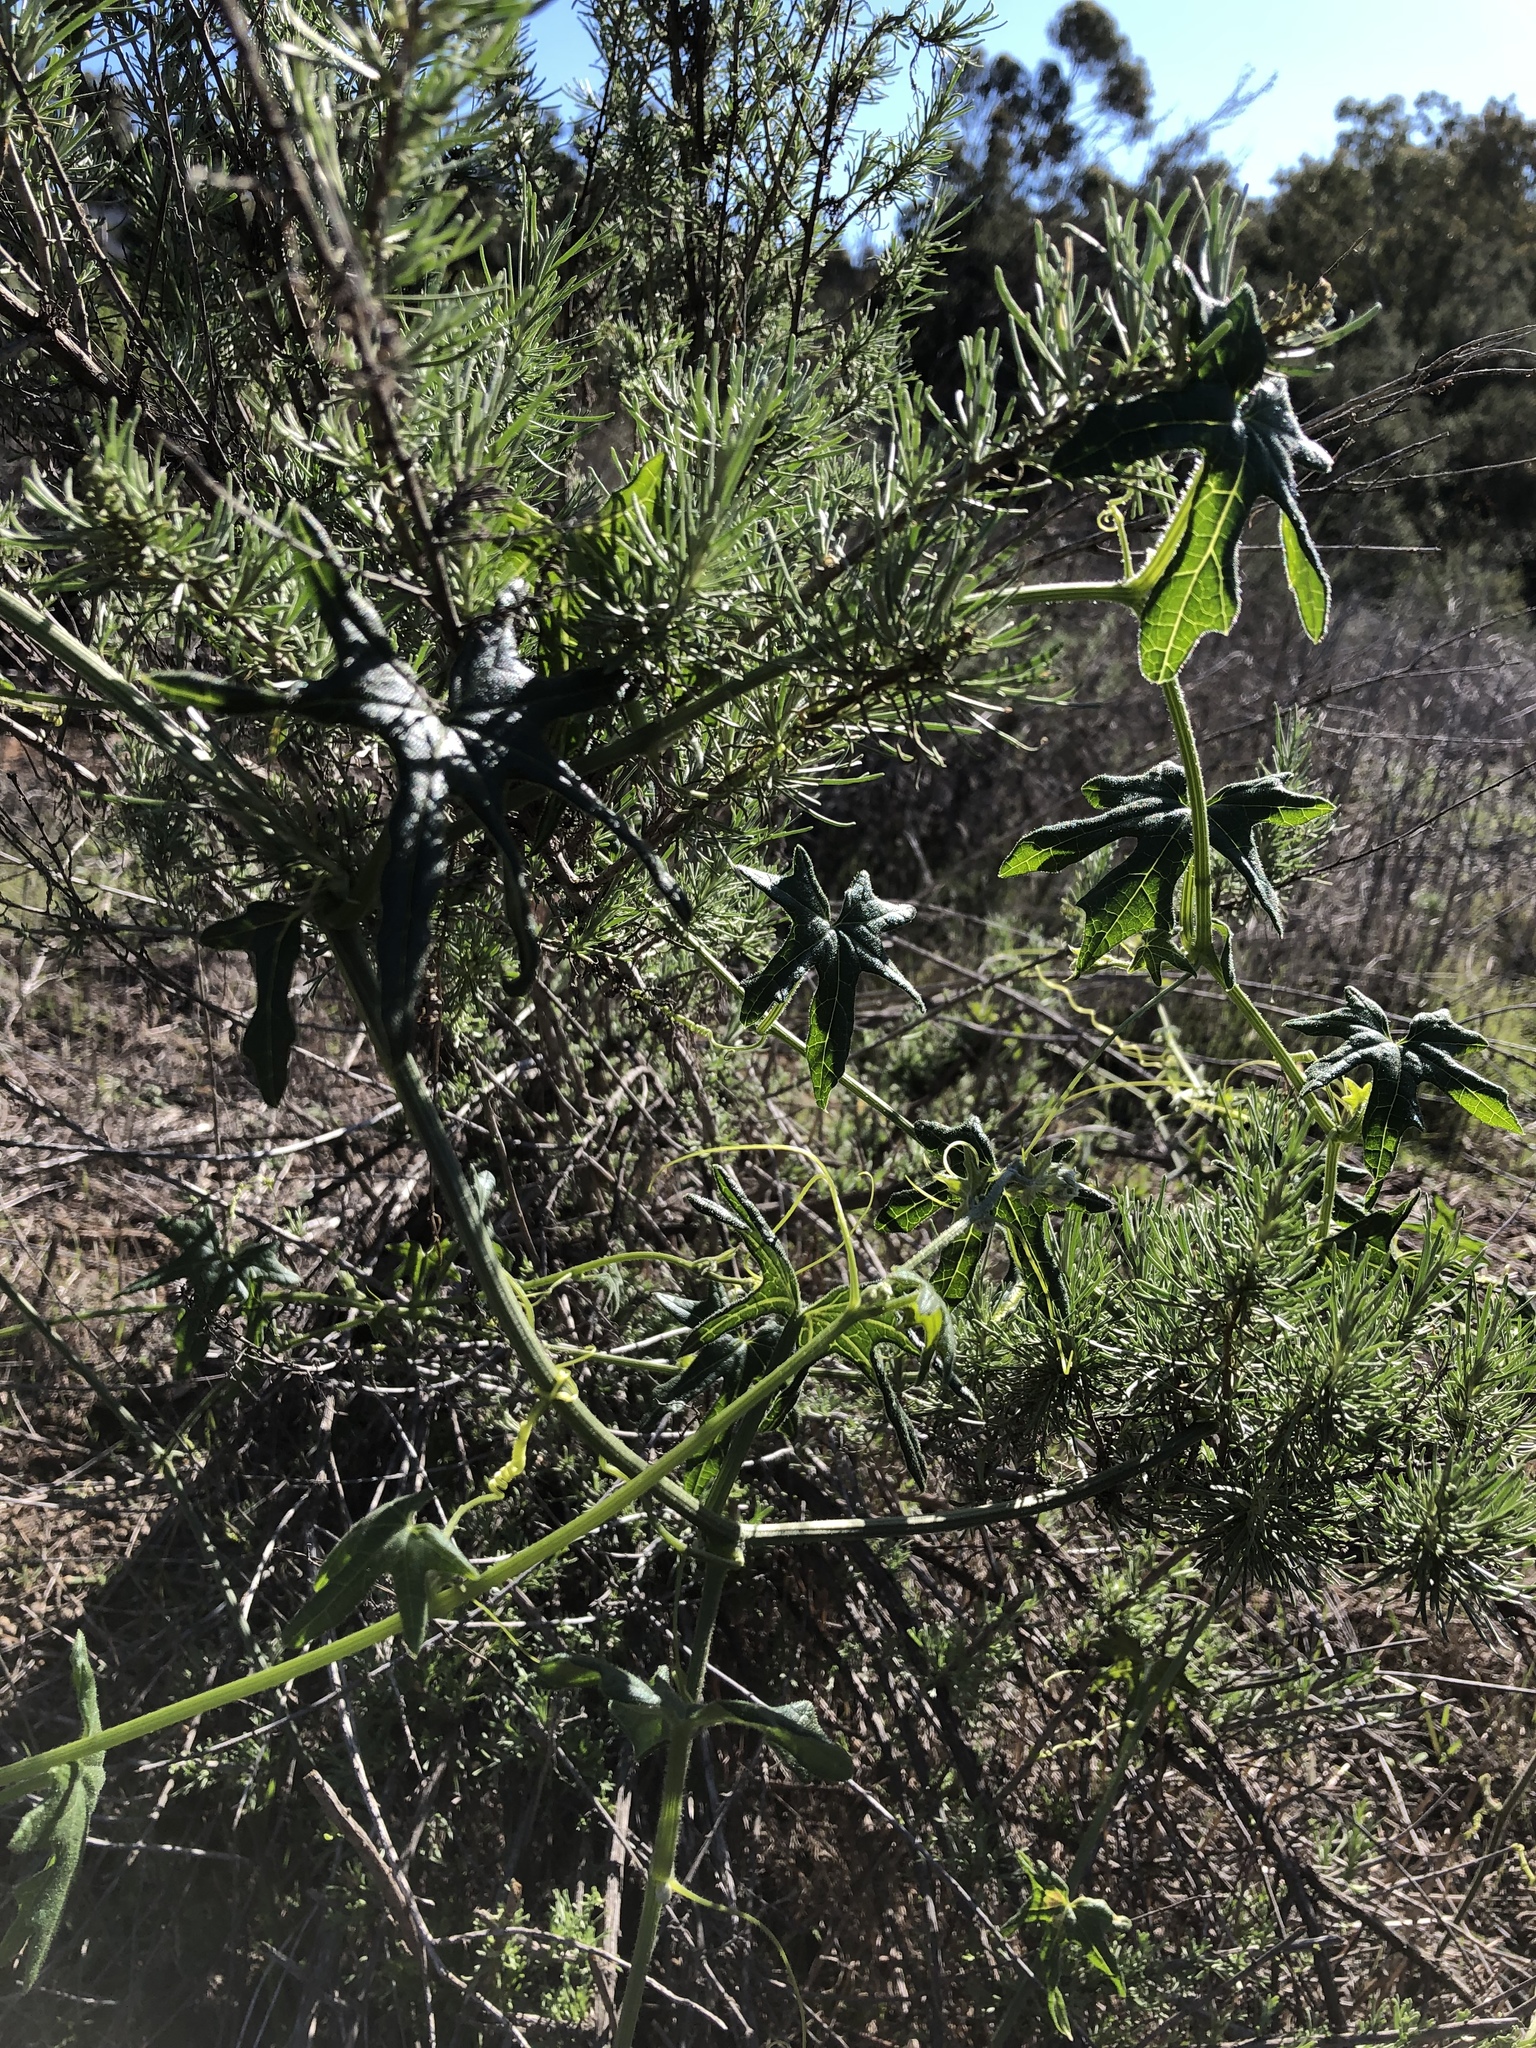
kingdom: Plantae
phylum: Tracheophyta
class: Magnoliopsida
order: Cucurbitales
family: Cucurbitaceae
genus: Marah
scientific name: Marah macrocarpa
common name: Cucamonga manroot
